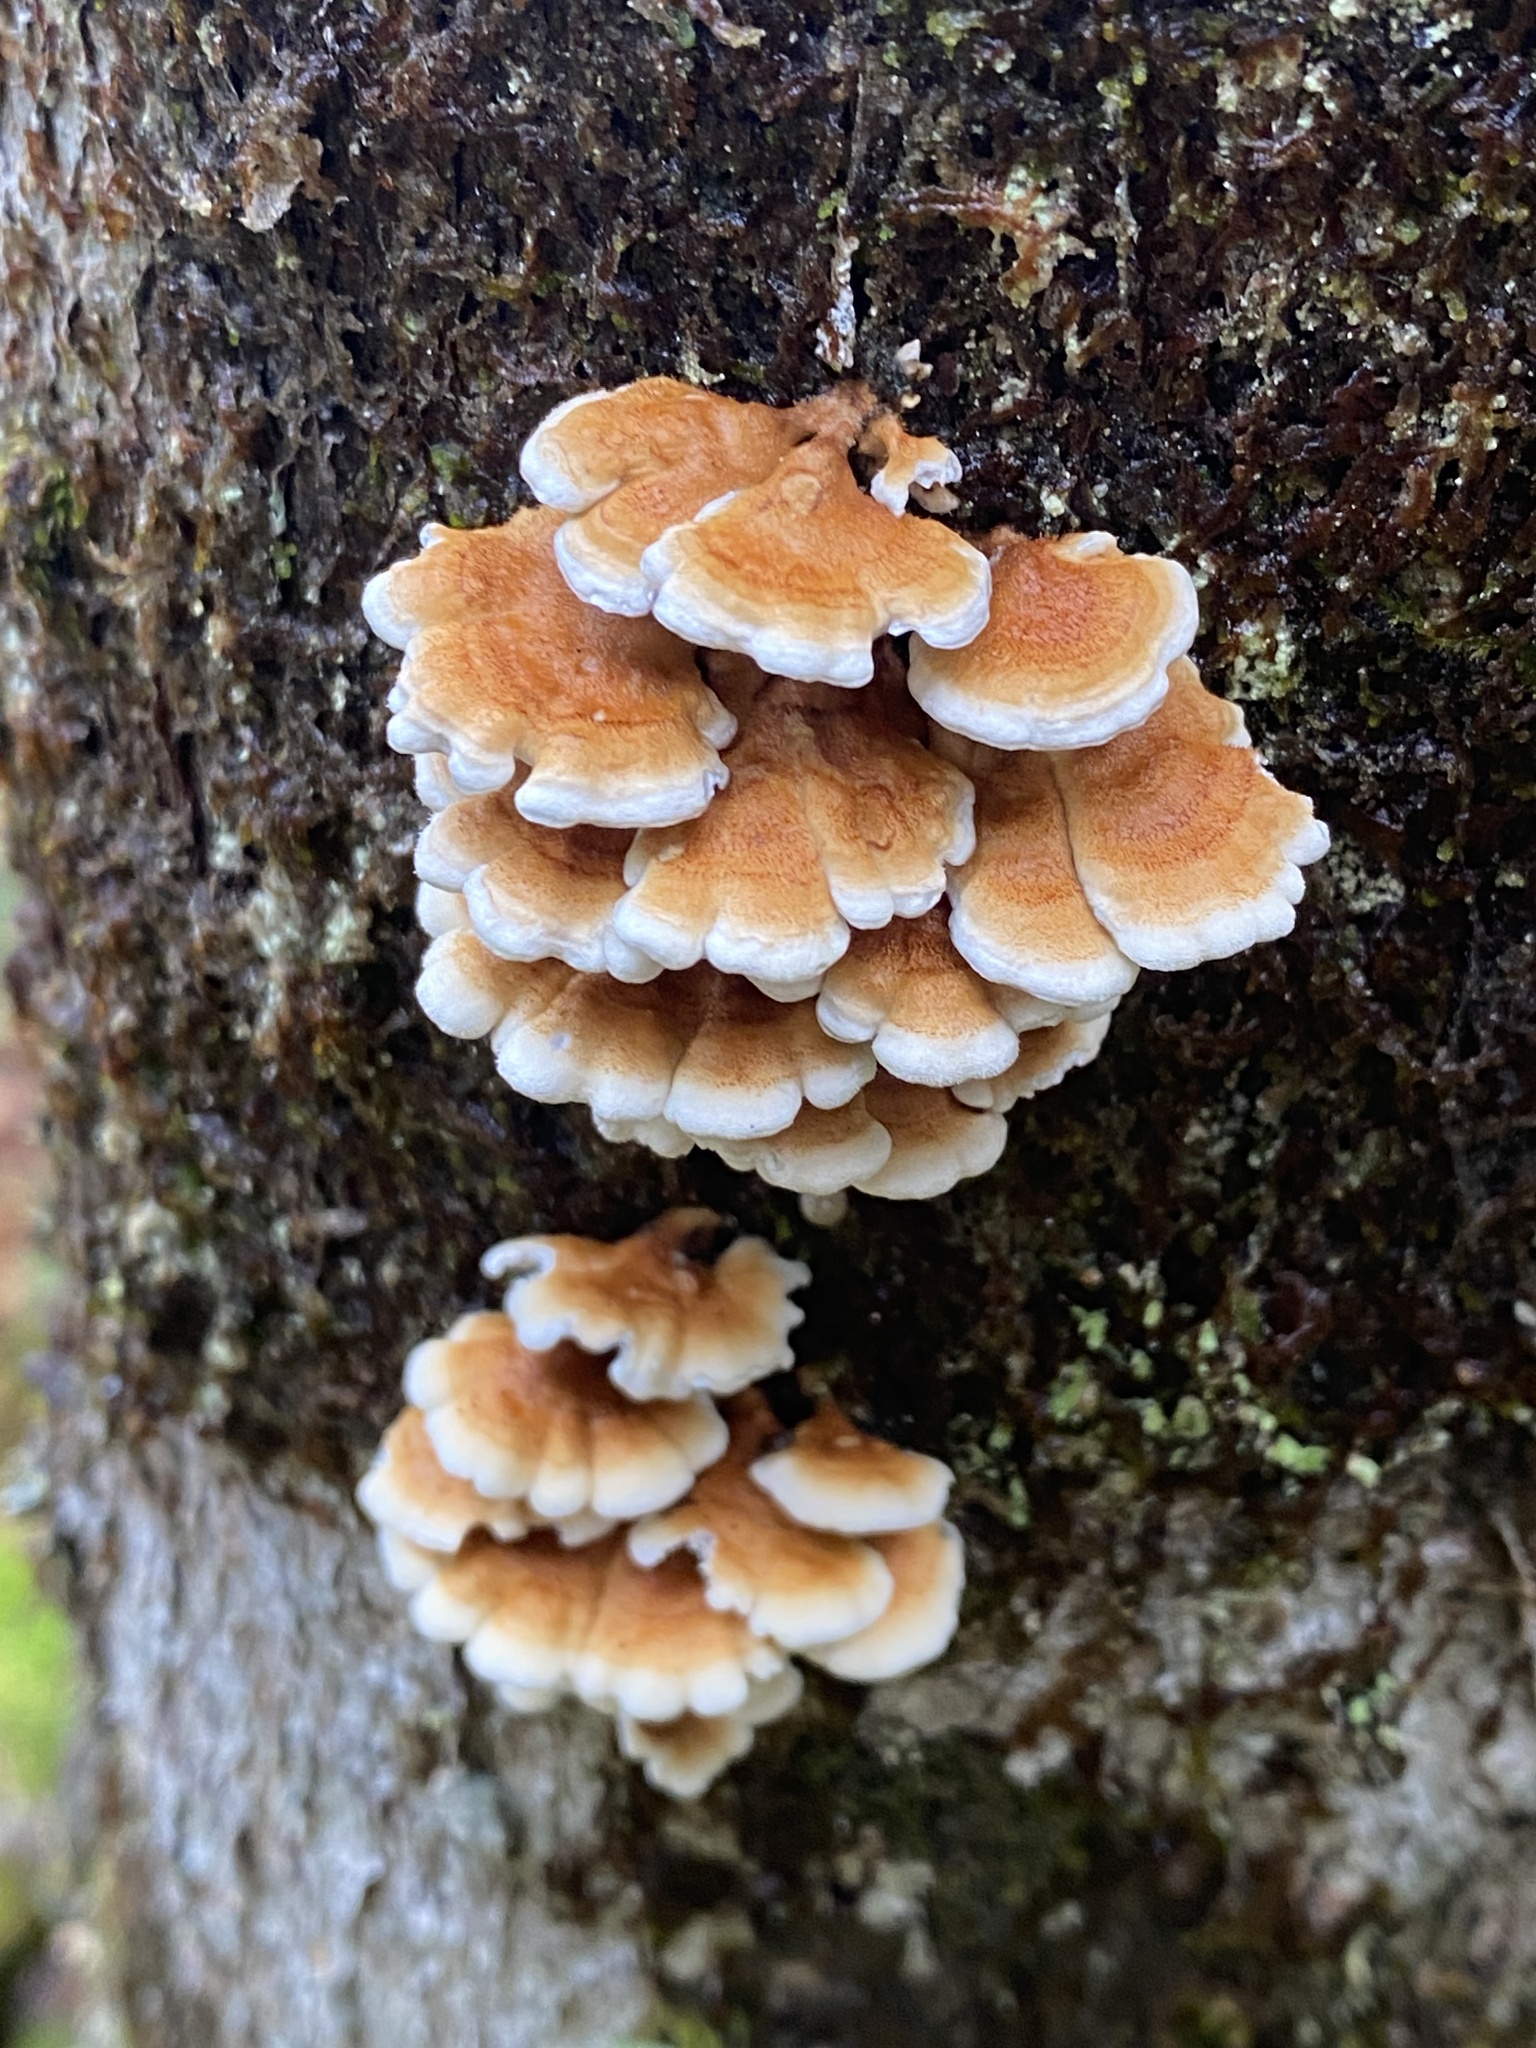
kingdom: Fungi
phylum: Basidiomycota
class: Agaricomycetes
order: Amylocorticiales
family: Amylocorticiaceae
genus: Plicaturopsis
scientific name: Plicaturopsis crispa
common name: Crimped gill
